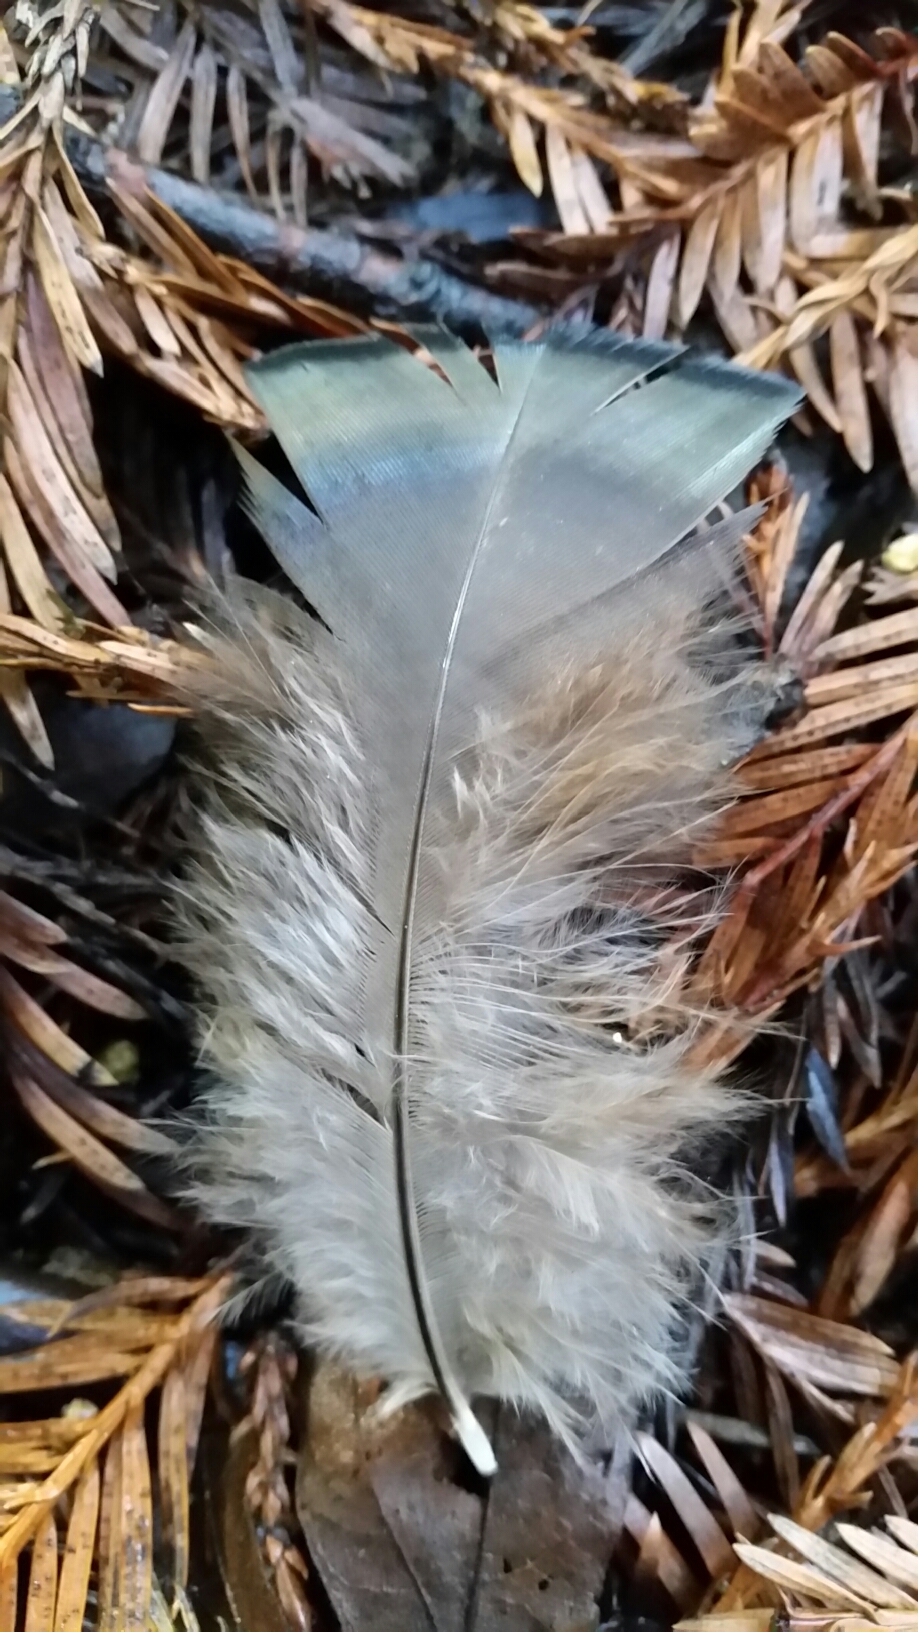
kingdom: Animalia
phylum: Chordata
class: Aves
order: Galliformes
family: Phasianidae
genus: Meleagris
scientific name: Meleagris gallopavo
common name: Wild turkey
